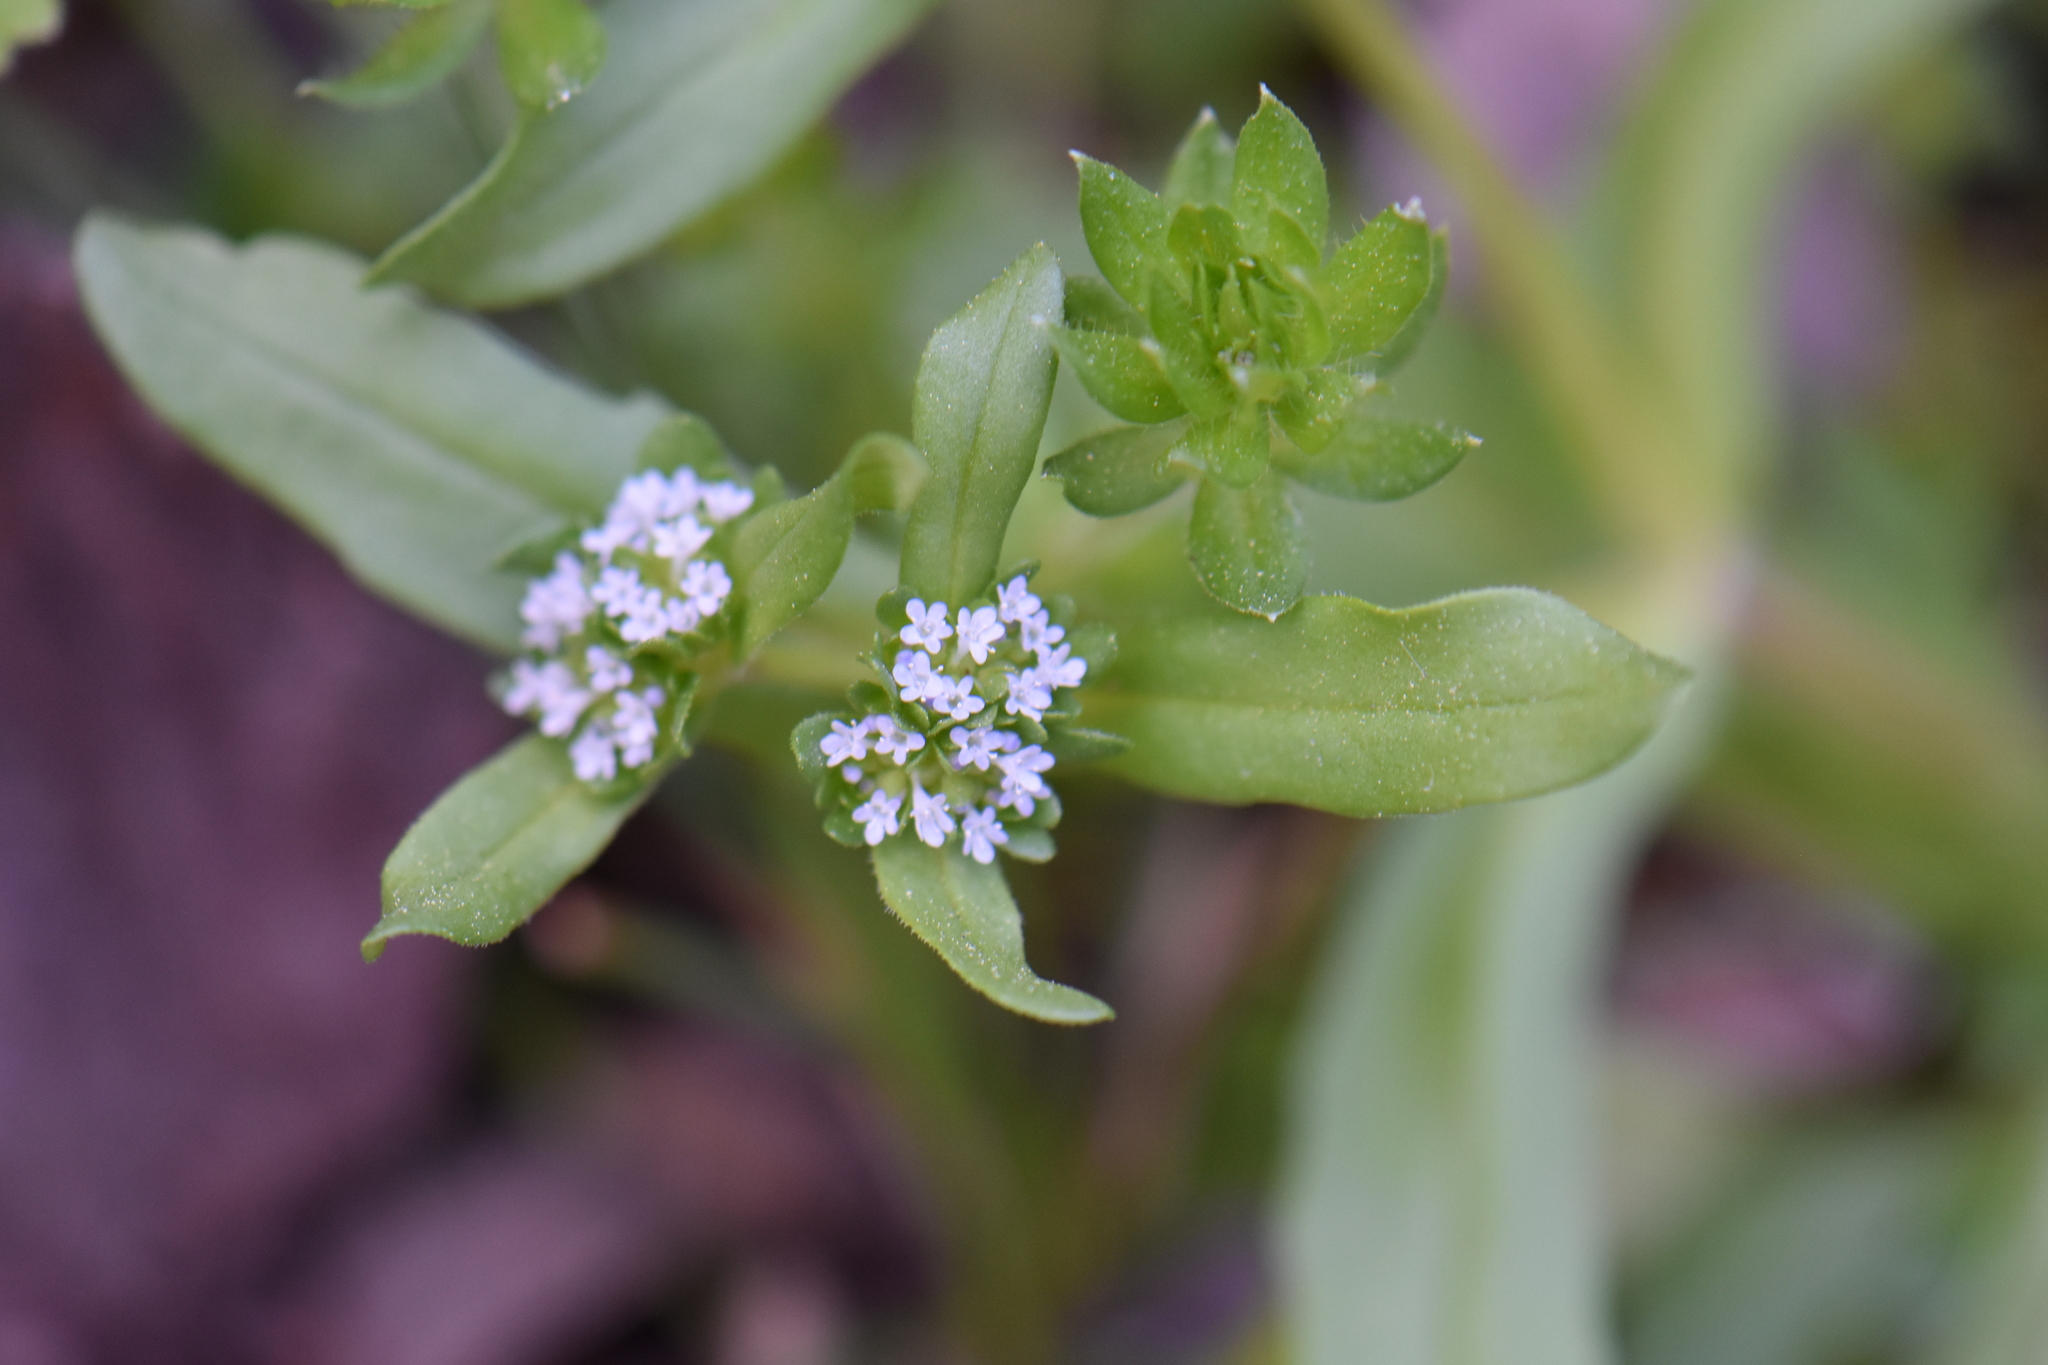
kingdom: Plantae
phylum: Tracheophyta
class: Magnoliopsida
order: Dipsacales
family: Caprifoliaceae
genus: Valerianella
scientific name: Valerianella locusta
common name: Common cornsalad
